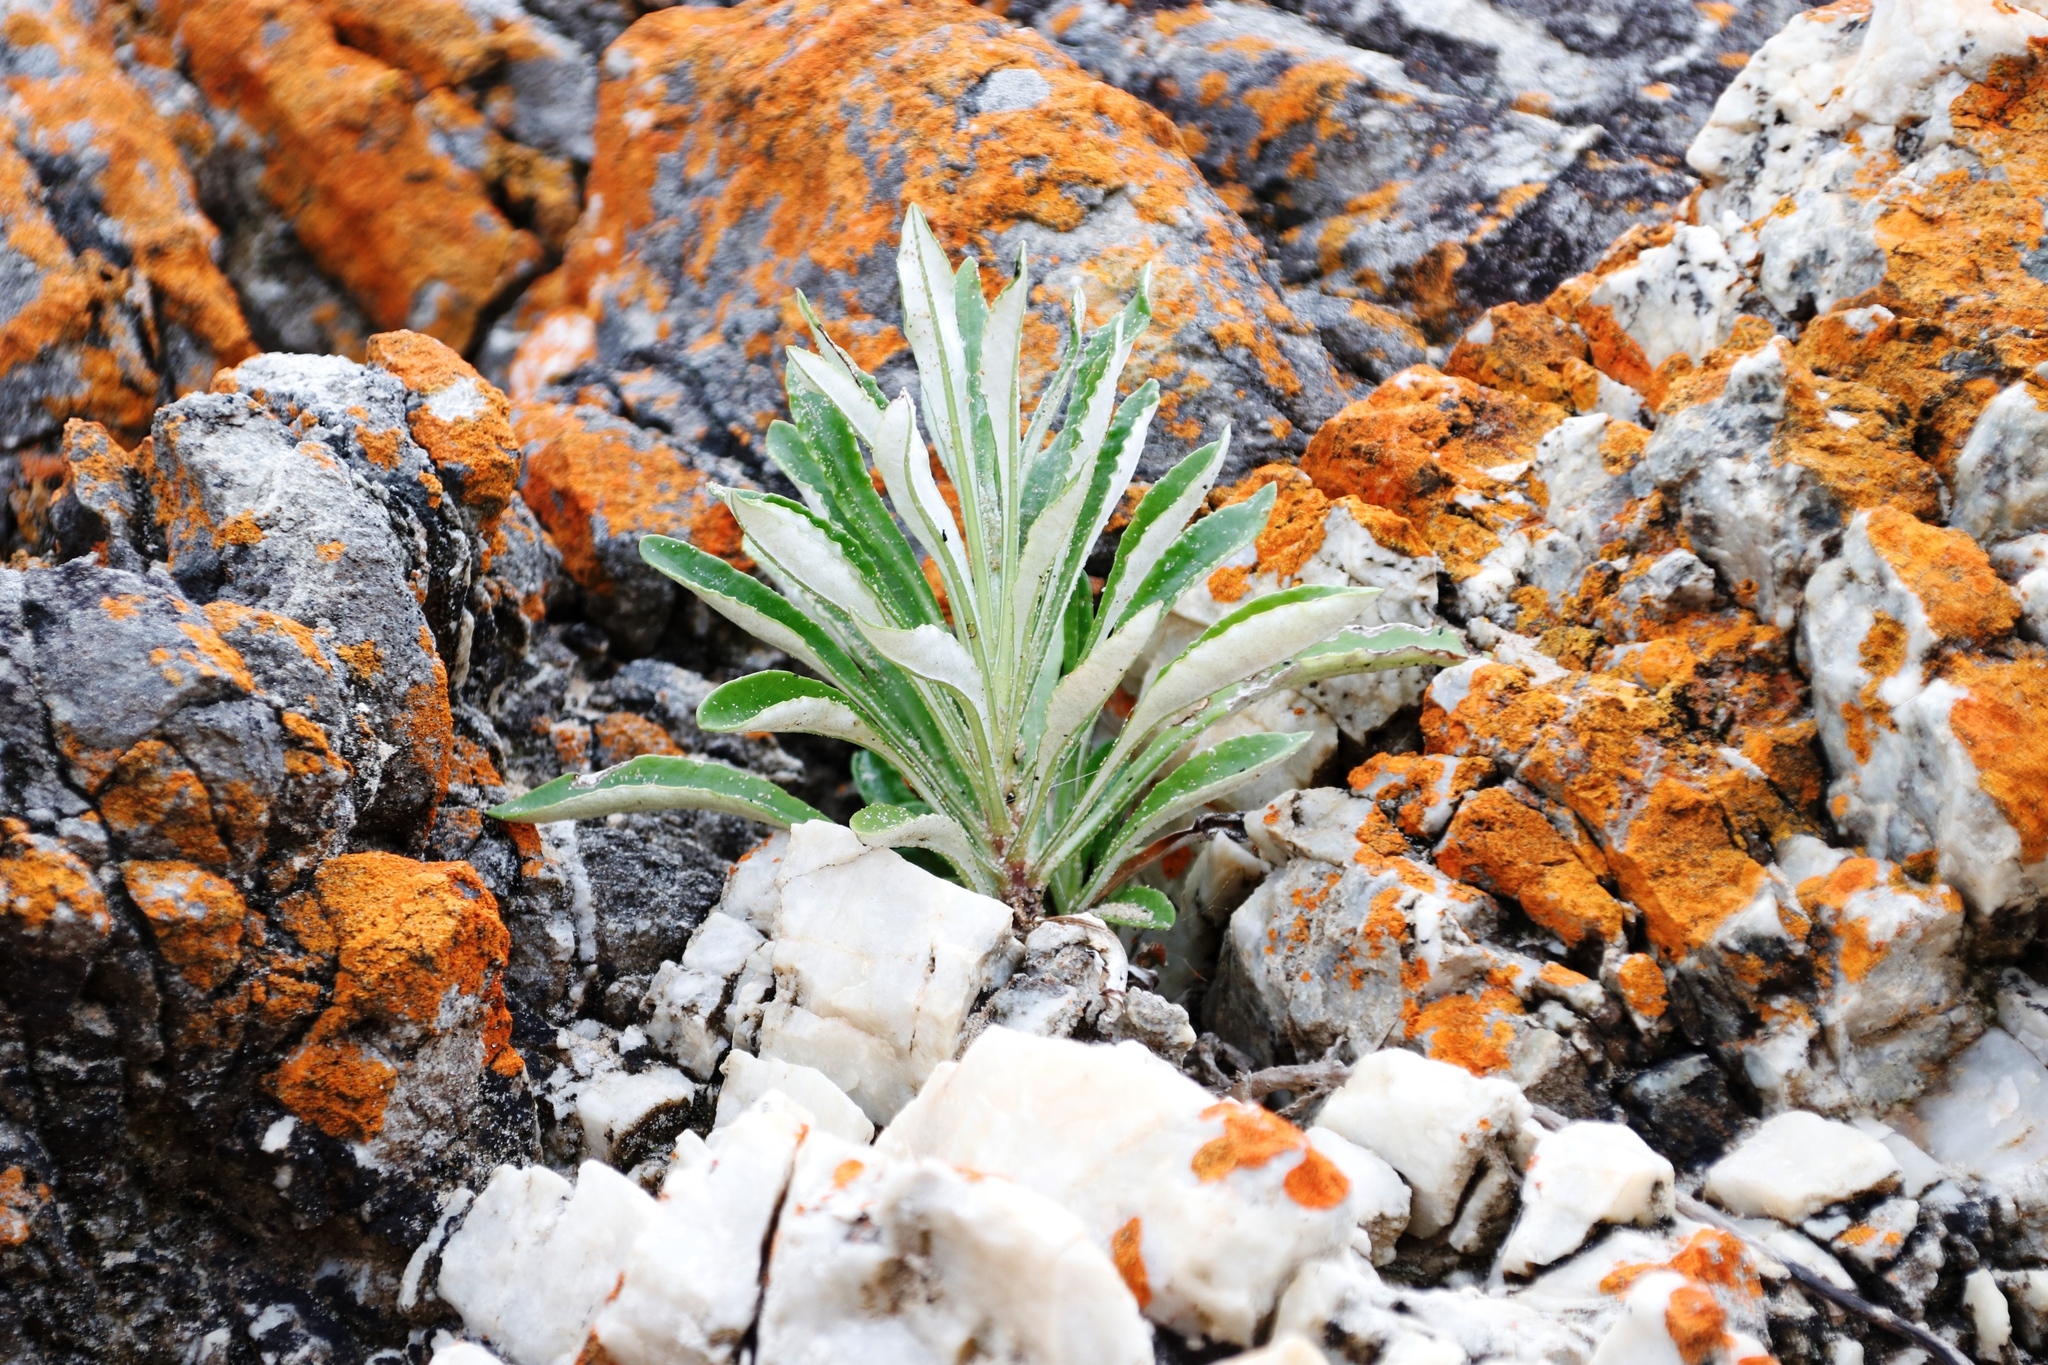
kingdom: Plantae
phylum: Tracheophyta
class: Magnoliopsida
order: Asterales
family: Asteraceae
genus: Gazania
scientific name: Gazania rigens
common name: Treasureflower
